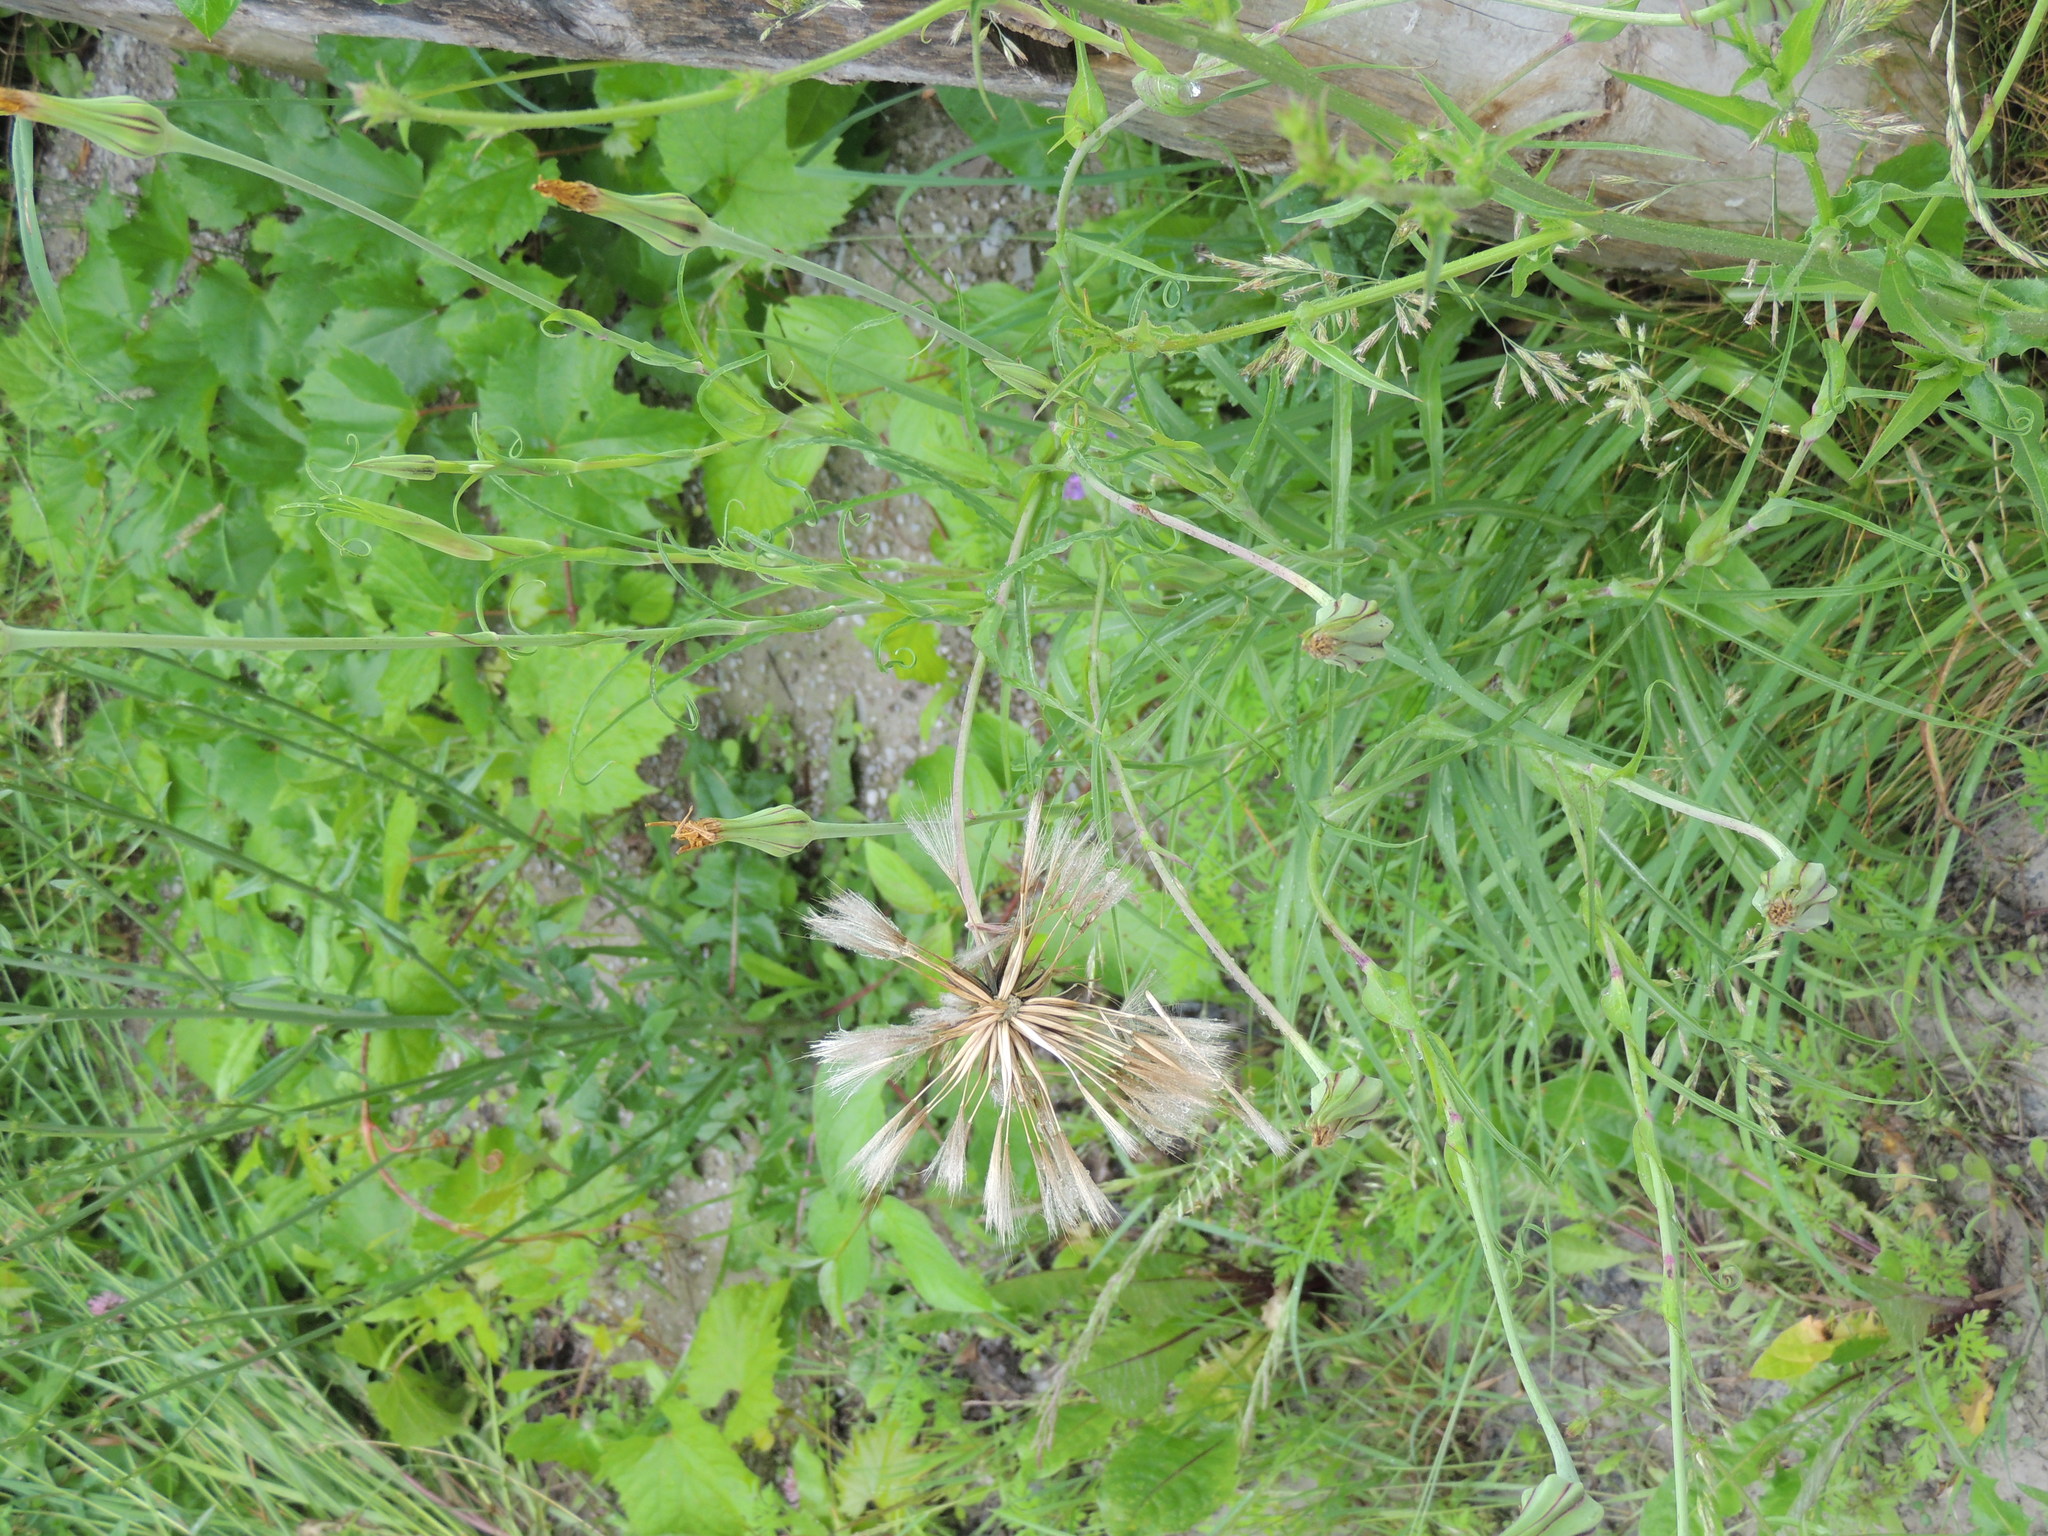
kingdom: Plantae
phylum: Tracheophyta
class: Magnoliopsida
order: Asterales
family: Asteraceae
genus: Tragopogon
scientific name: Tragopogon pratensis
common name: Goat's-beard
